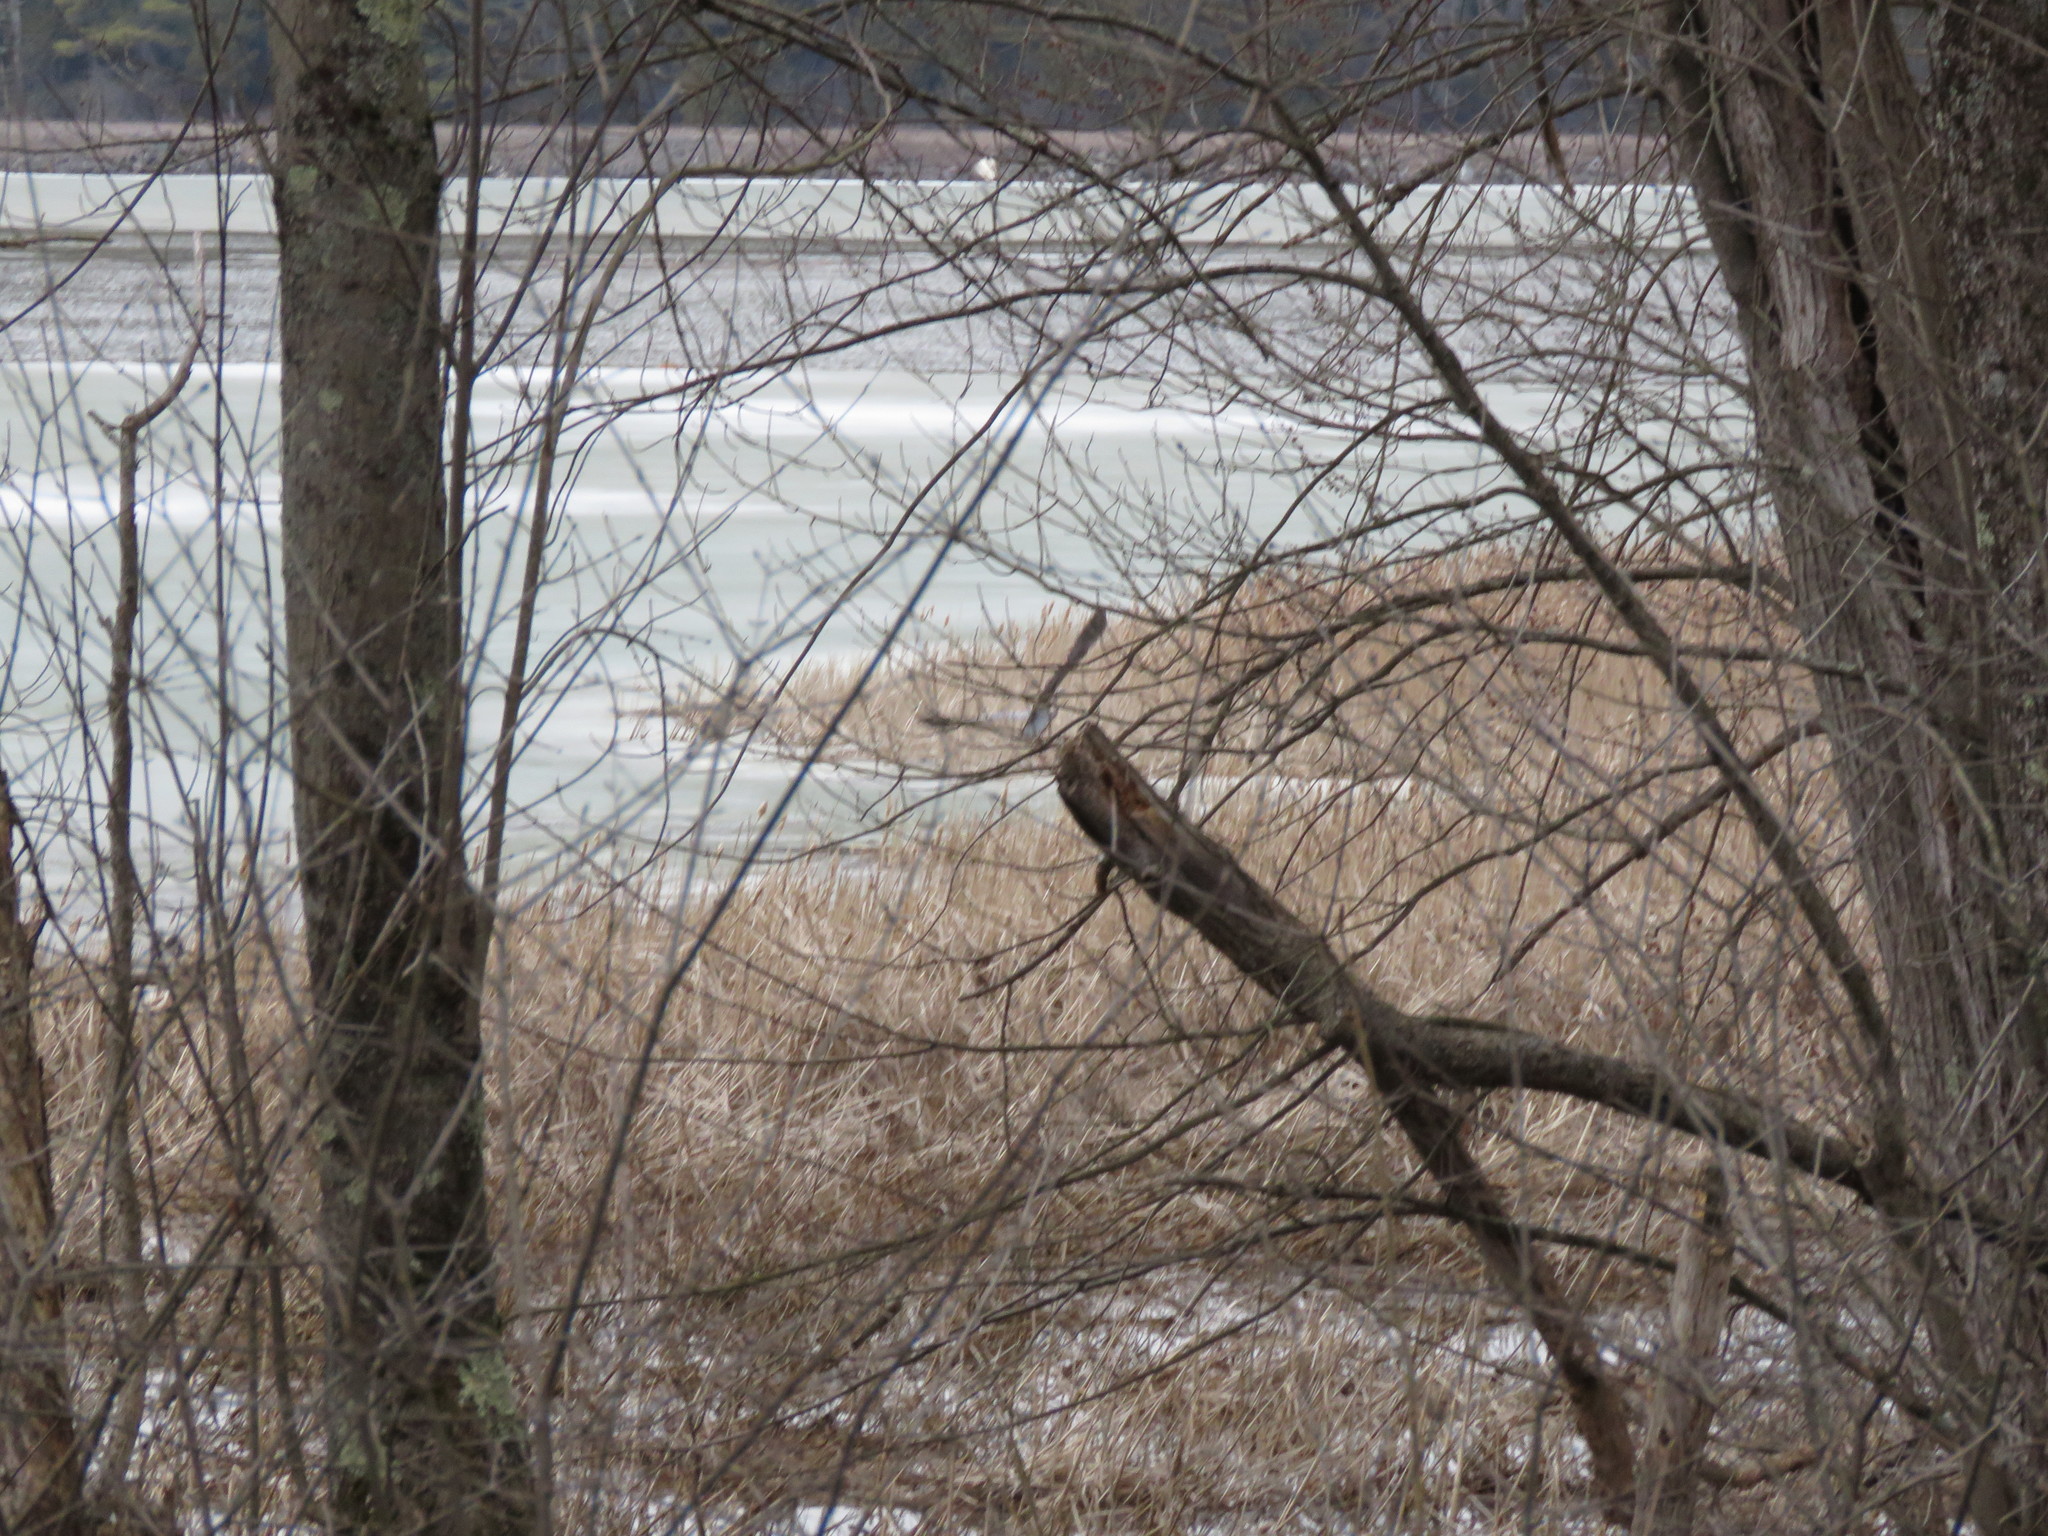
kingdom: Animalia
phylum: Chordata
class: Aves
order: Pelecaniformes
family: Ardeidae
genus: Ardea
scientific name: Ardea herodias
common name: Great blue heron
